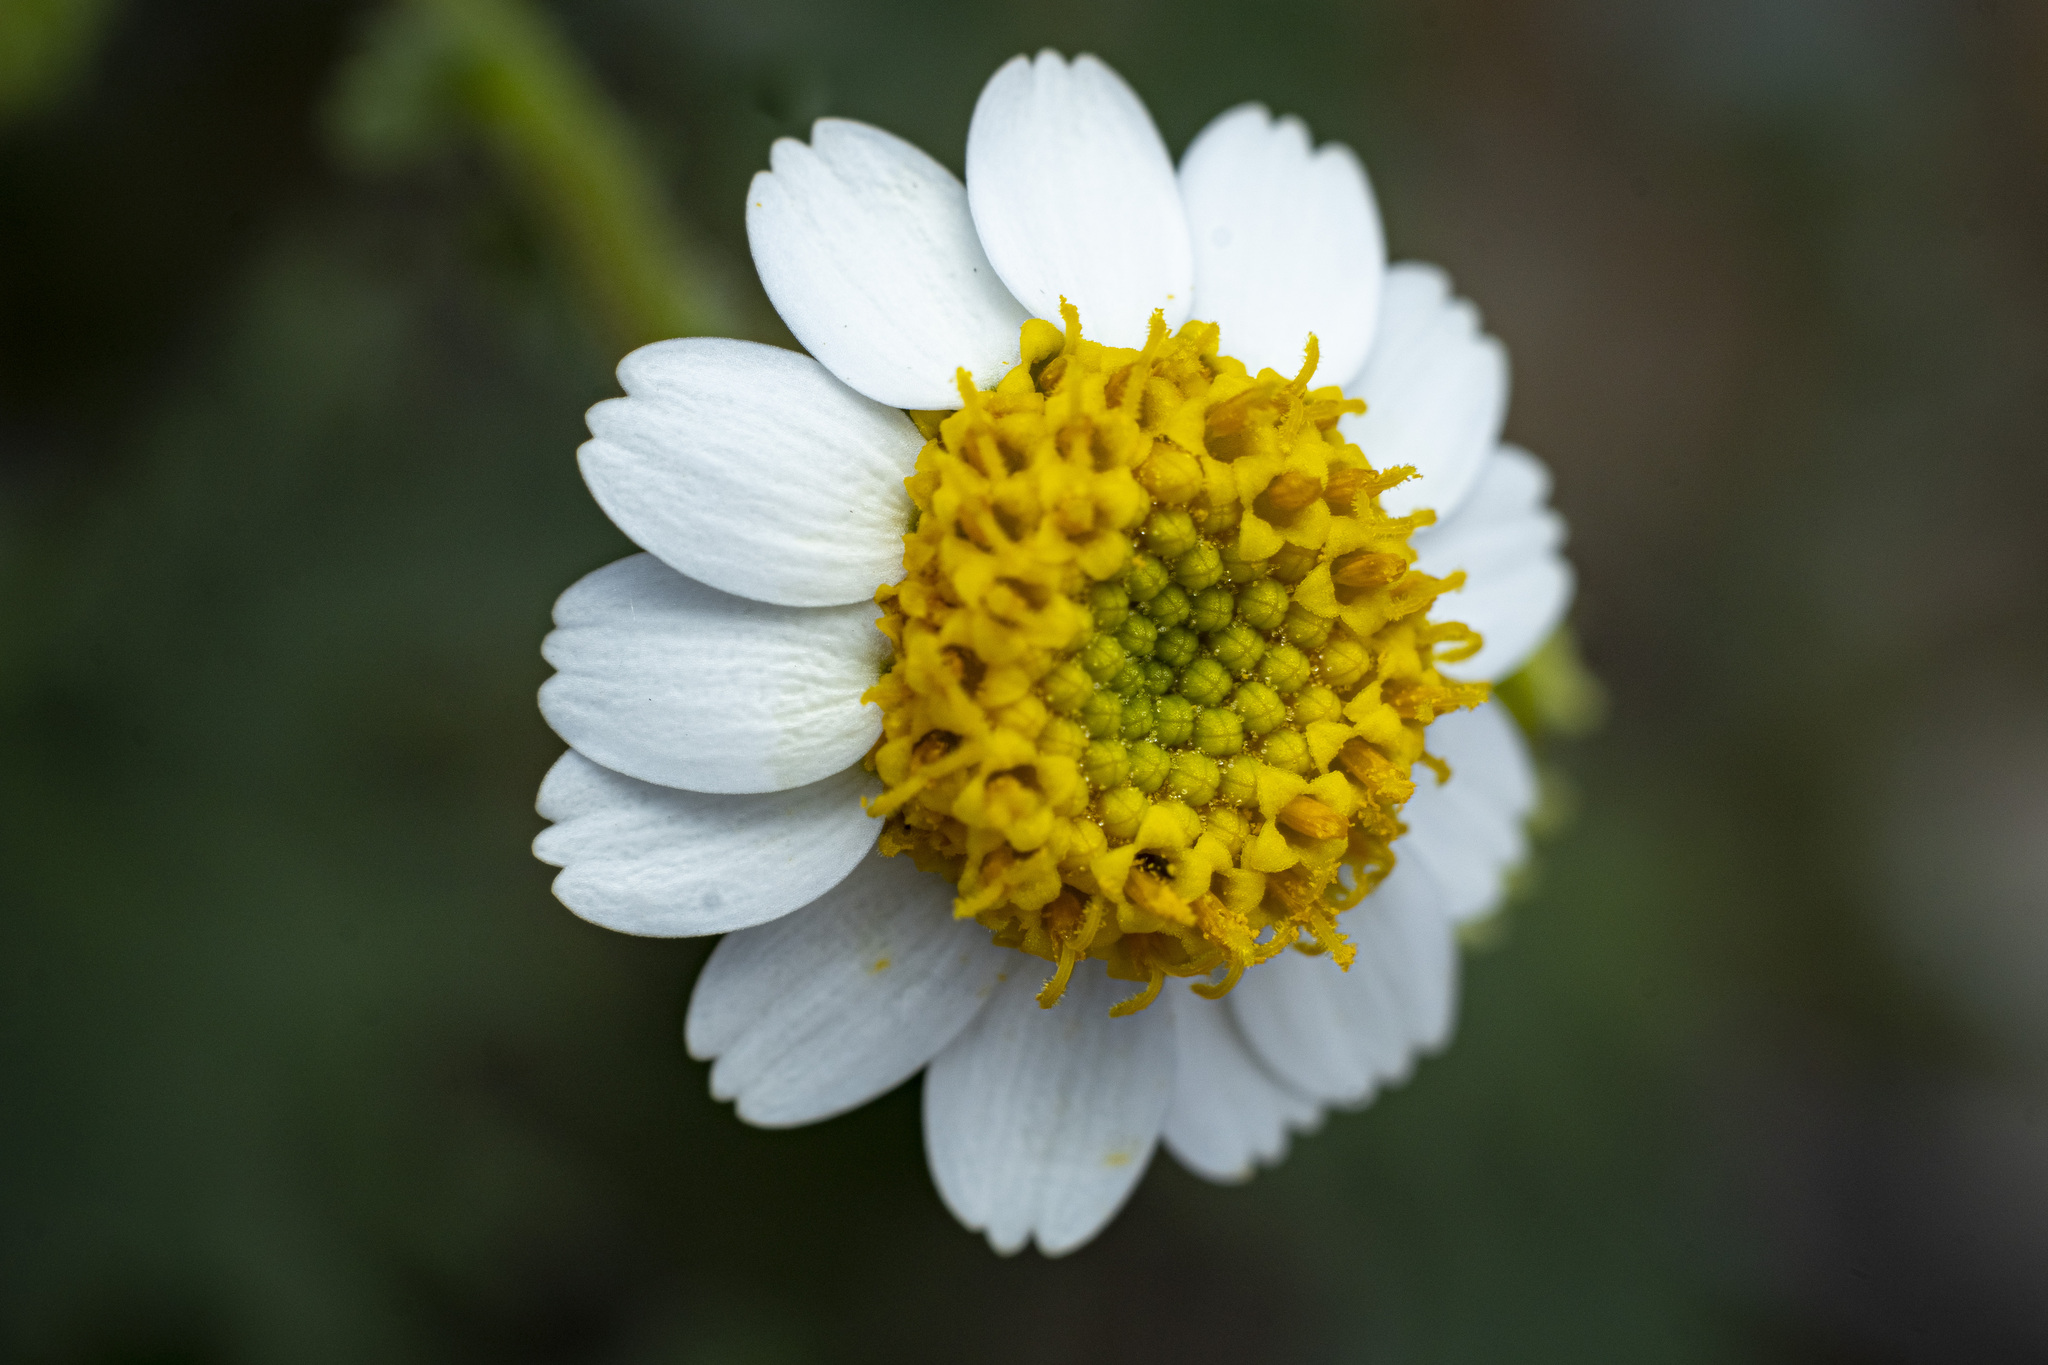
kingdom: Plantae
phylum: Tracheophyta
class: Magnoliopsida
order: Asterales
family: Asteraceae
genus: Laphamia
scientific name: Laphamia emoryi
